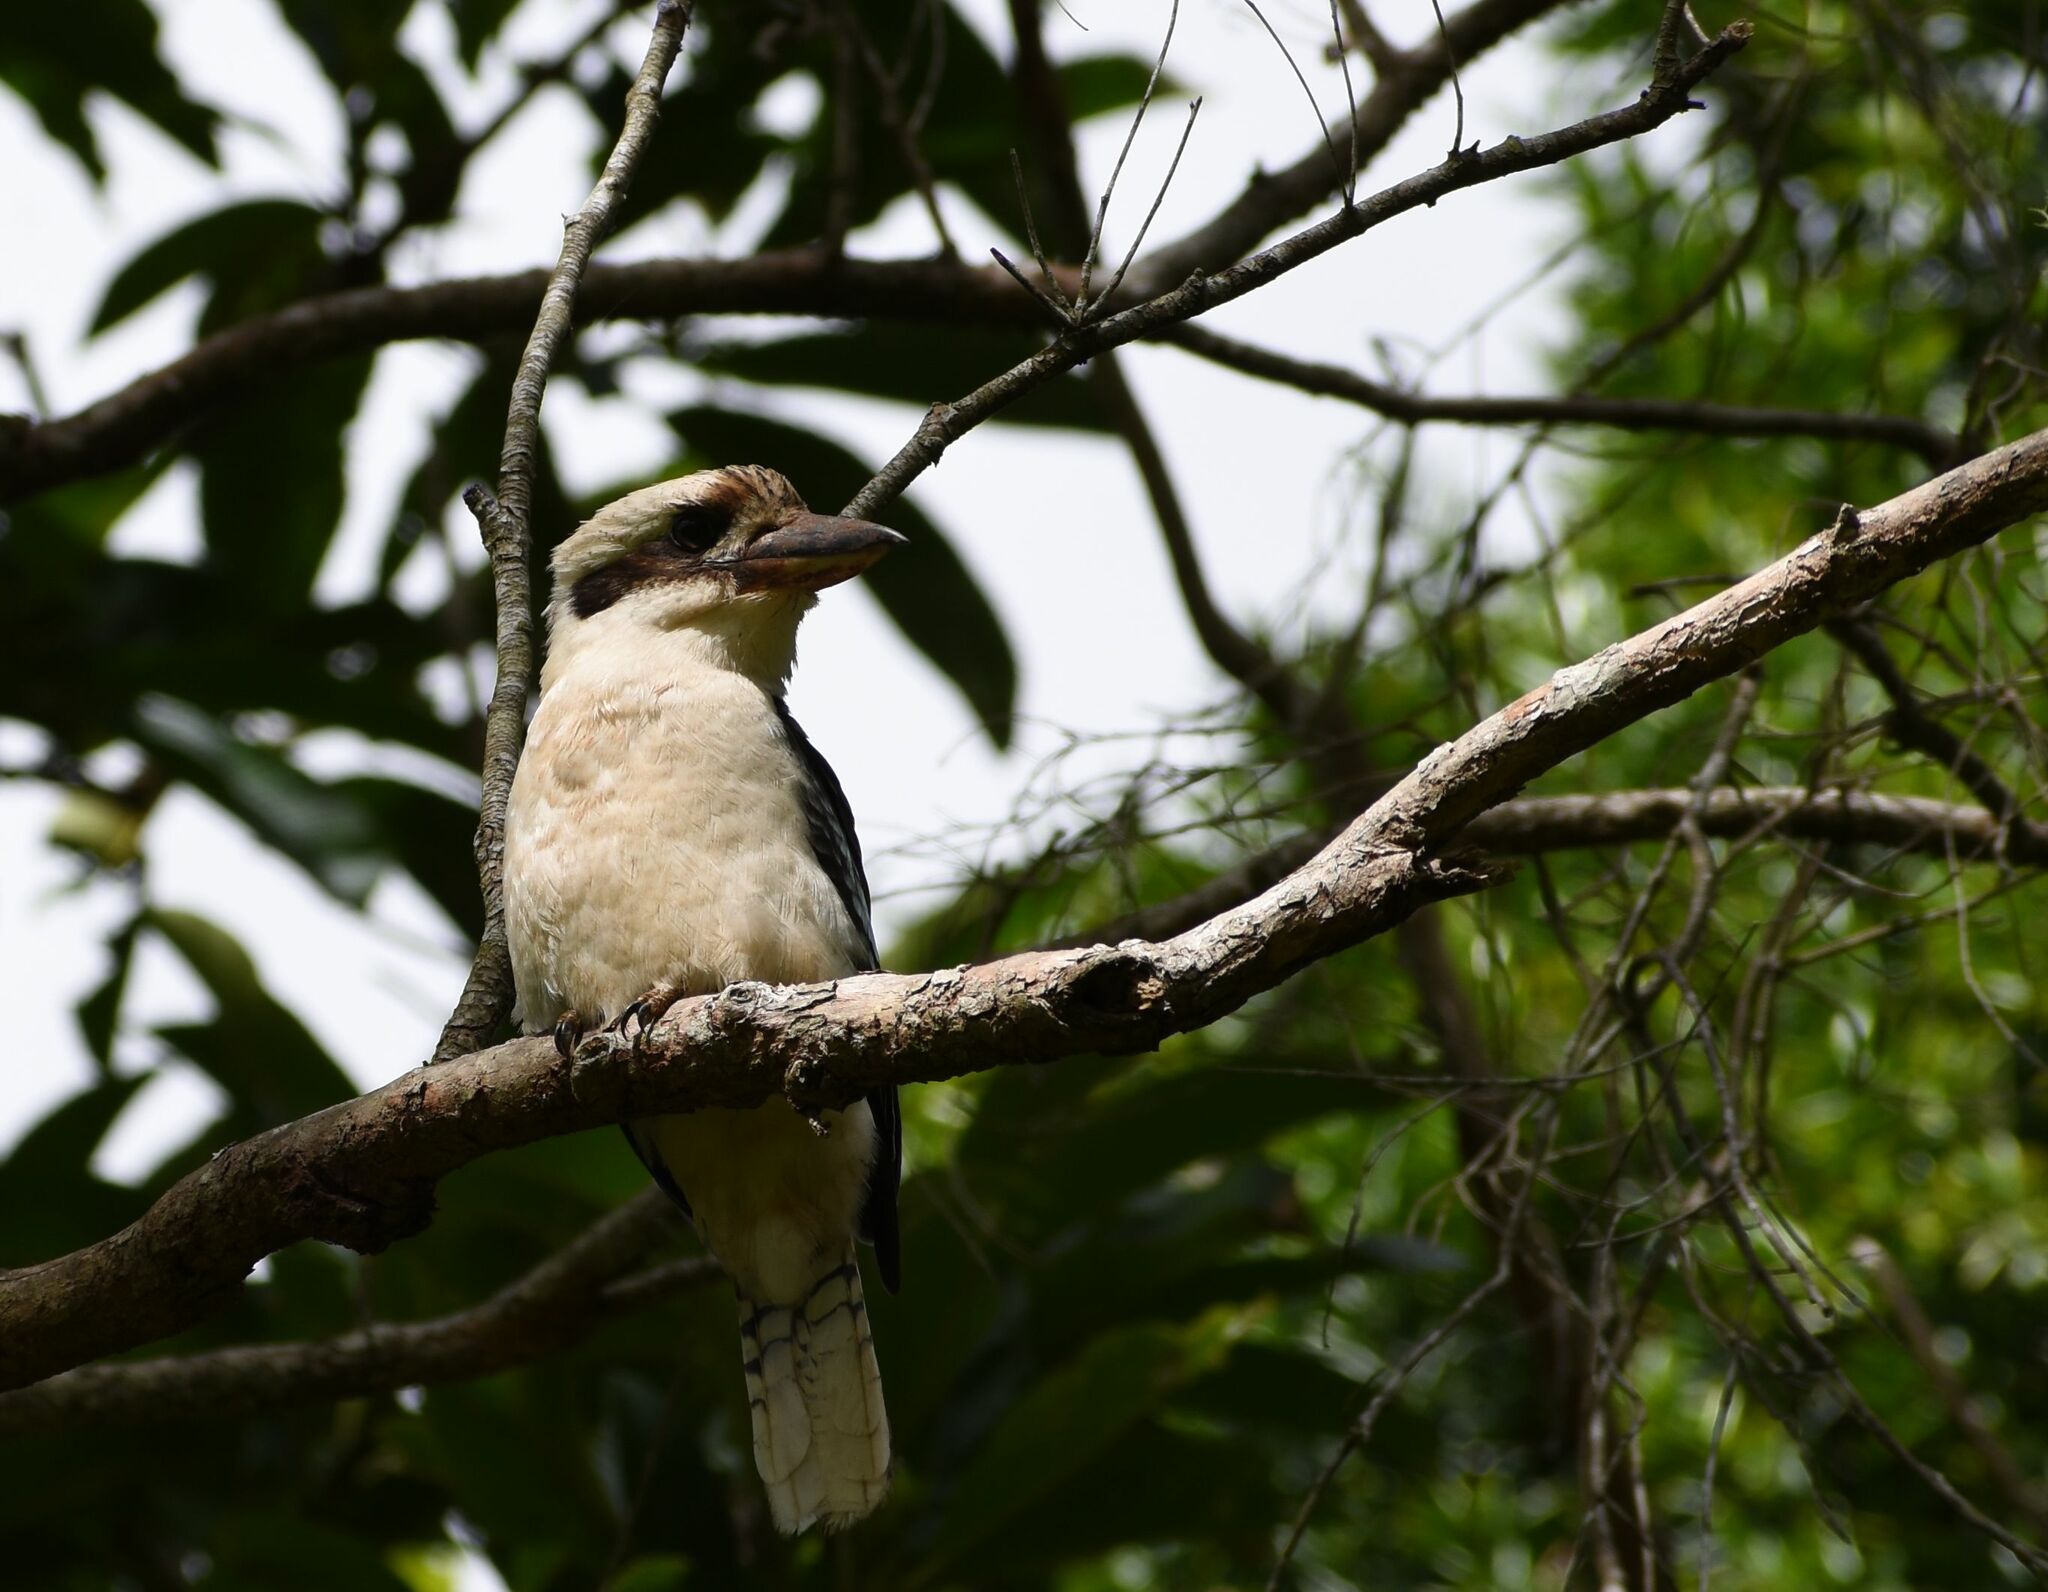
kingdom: Animalia
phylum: Chordata
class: Aves
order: Coraciiformes
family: Alcedinidae
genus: Dacelo
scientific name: Dacelo novaeguineae
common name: Laughing kookaburra
